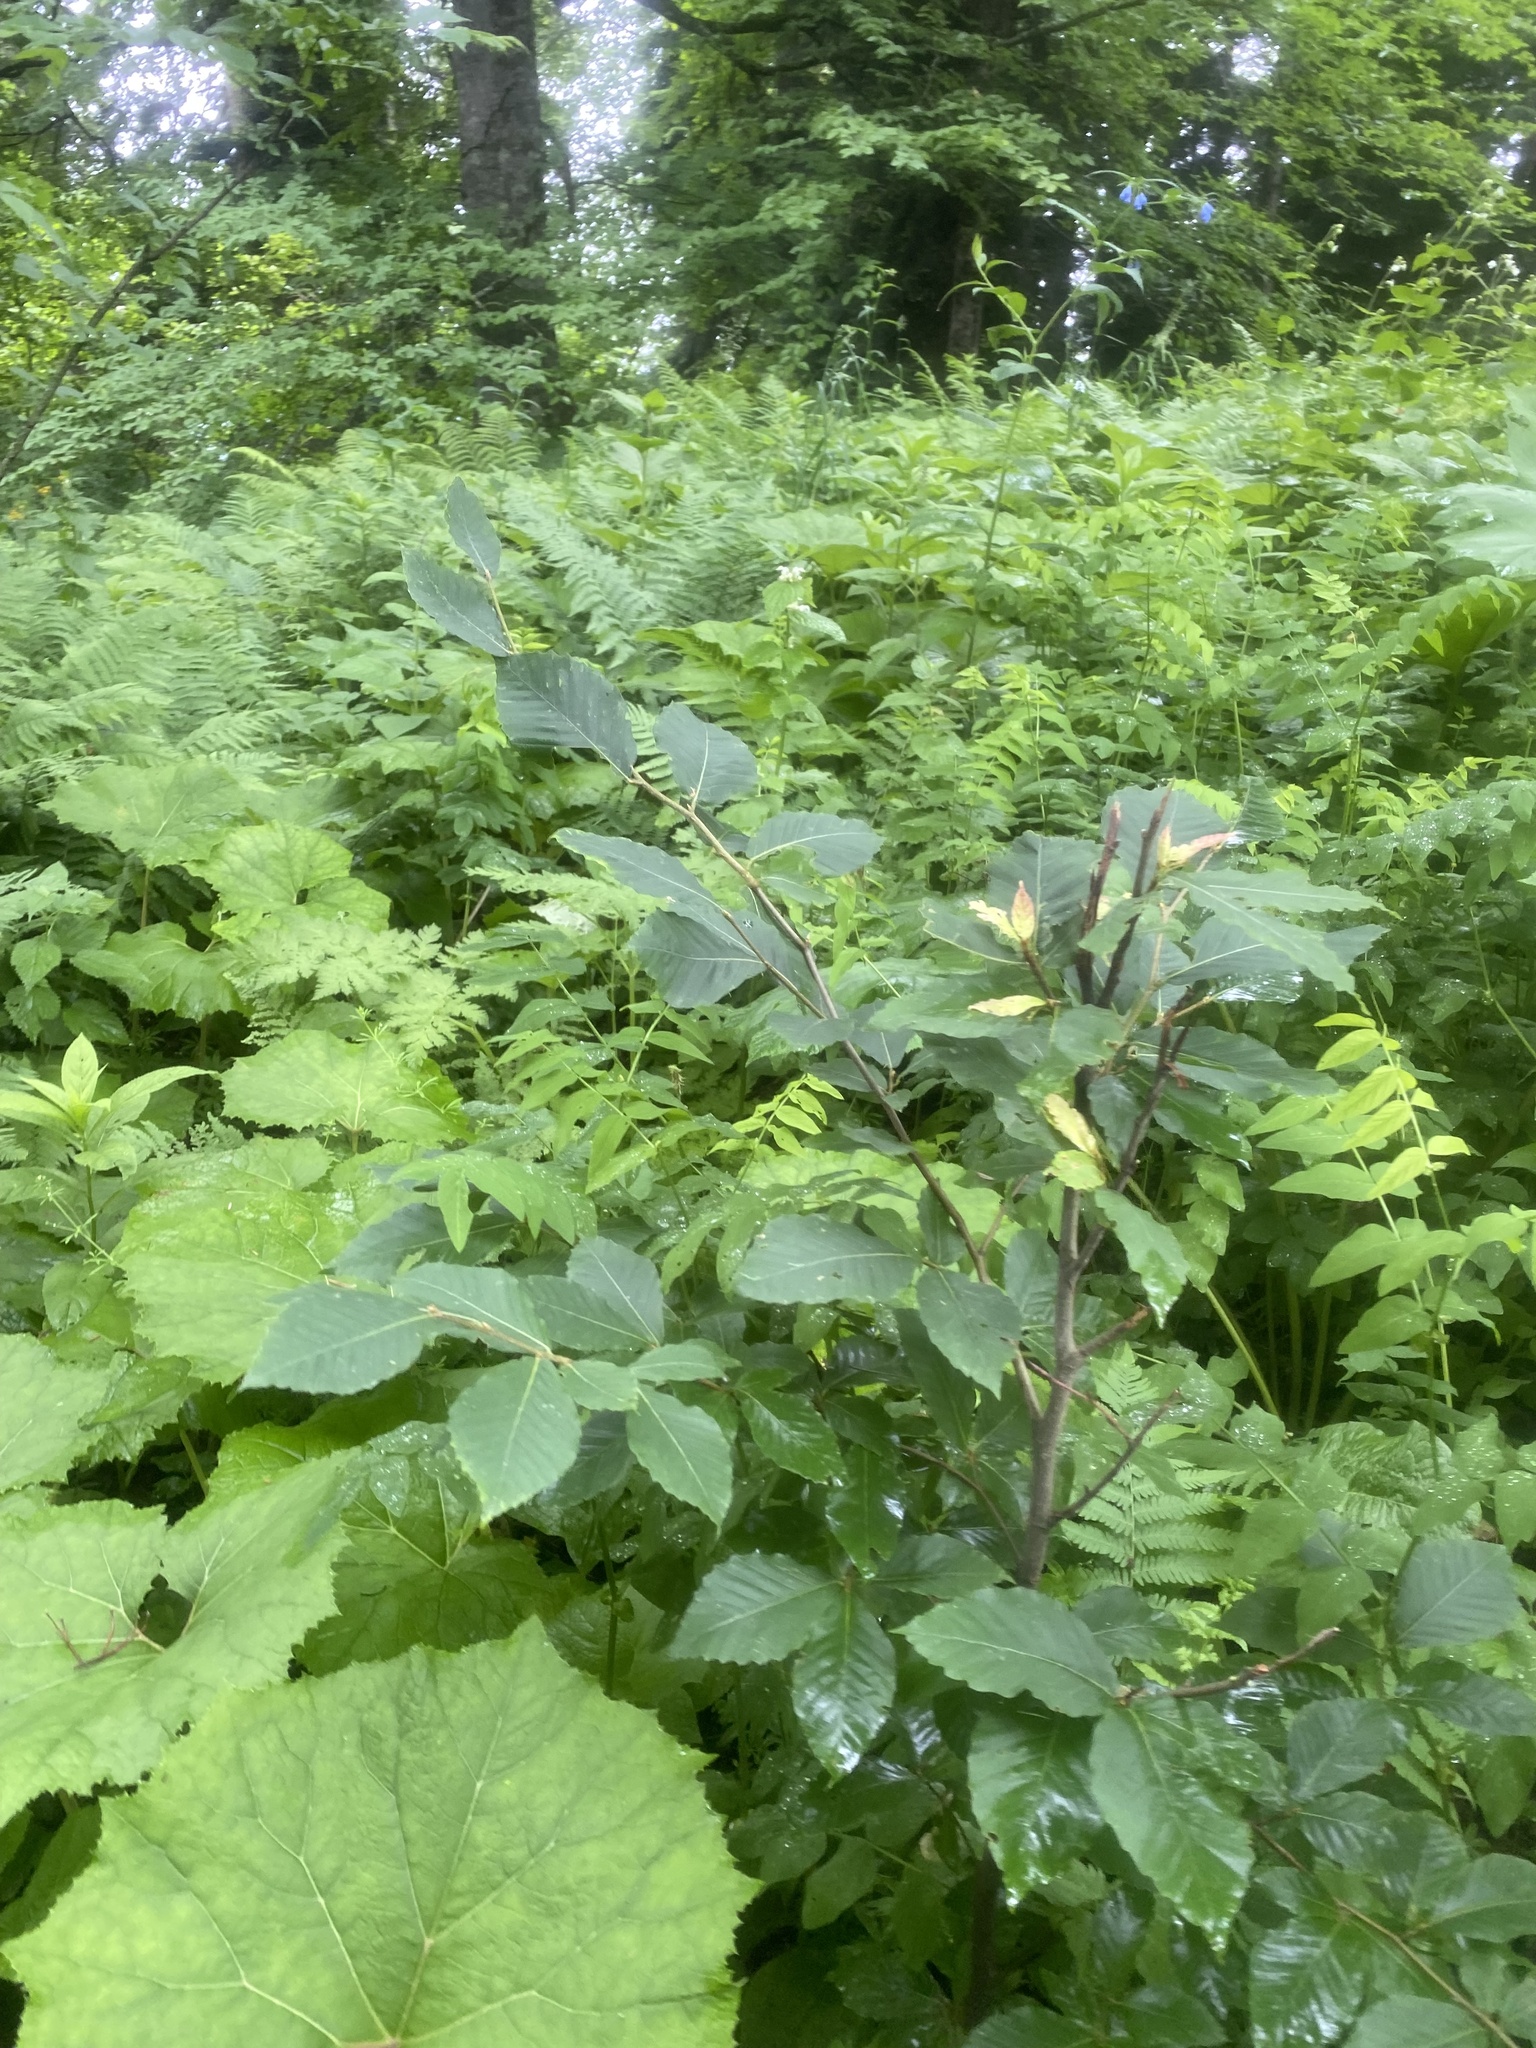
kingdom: Plantae
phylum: Tracheophyta
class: Magnoliopsida
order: Fagales
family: Fagaceae
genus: Fagus
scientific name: Fagus orientalis
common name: Oriental beech
